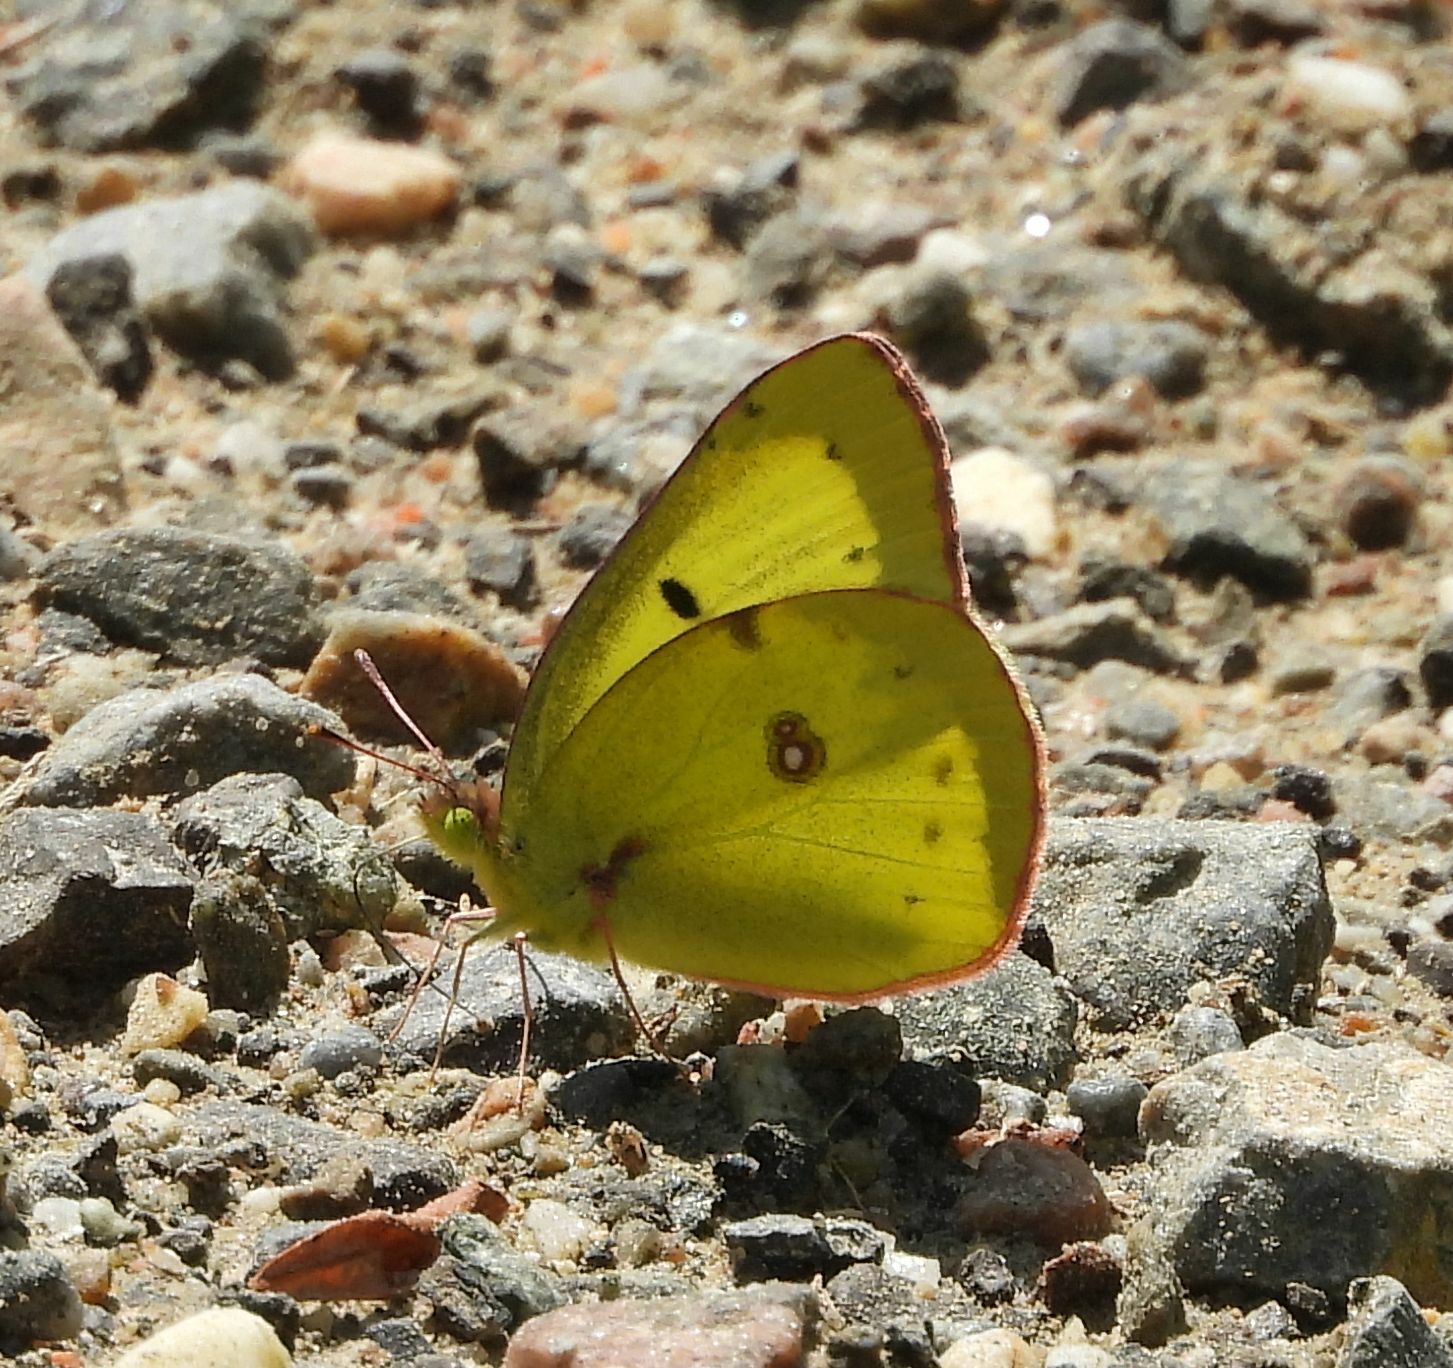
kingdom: Animalia
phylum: Arthropoda
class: Insecta
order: Lepidoptera
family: Pieridae
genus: Colias
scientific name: Colias philodice
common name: Clouded sulphur
